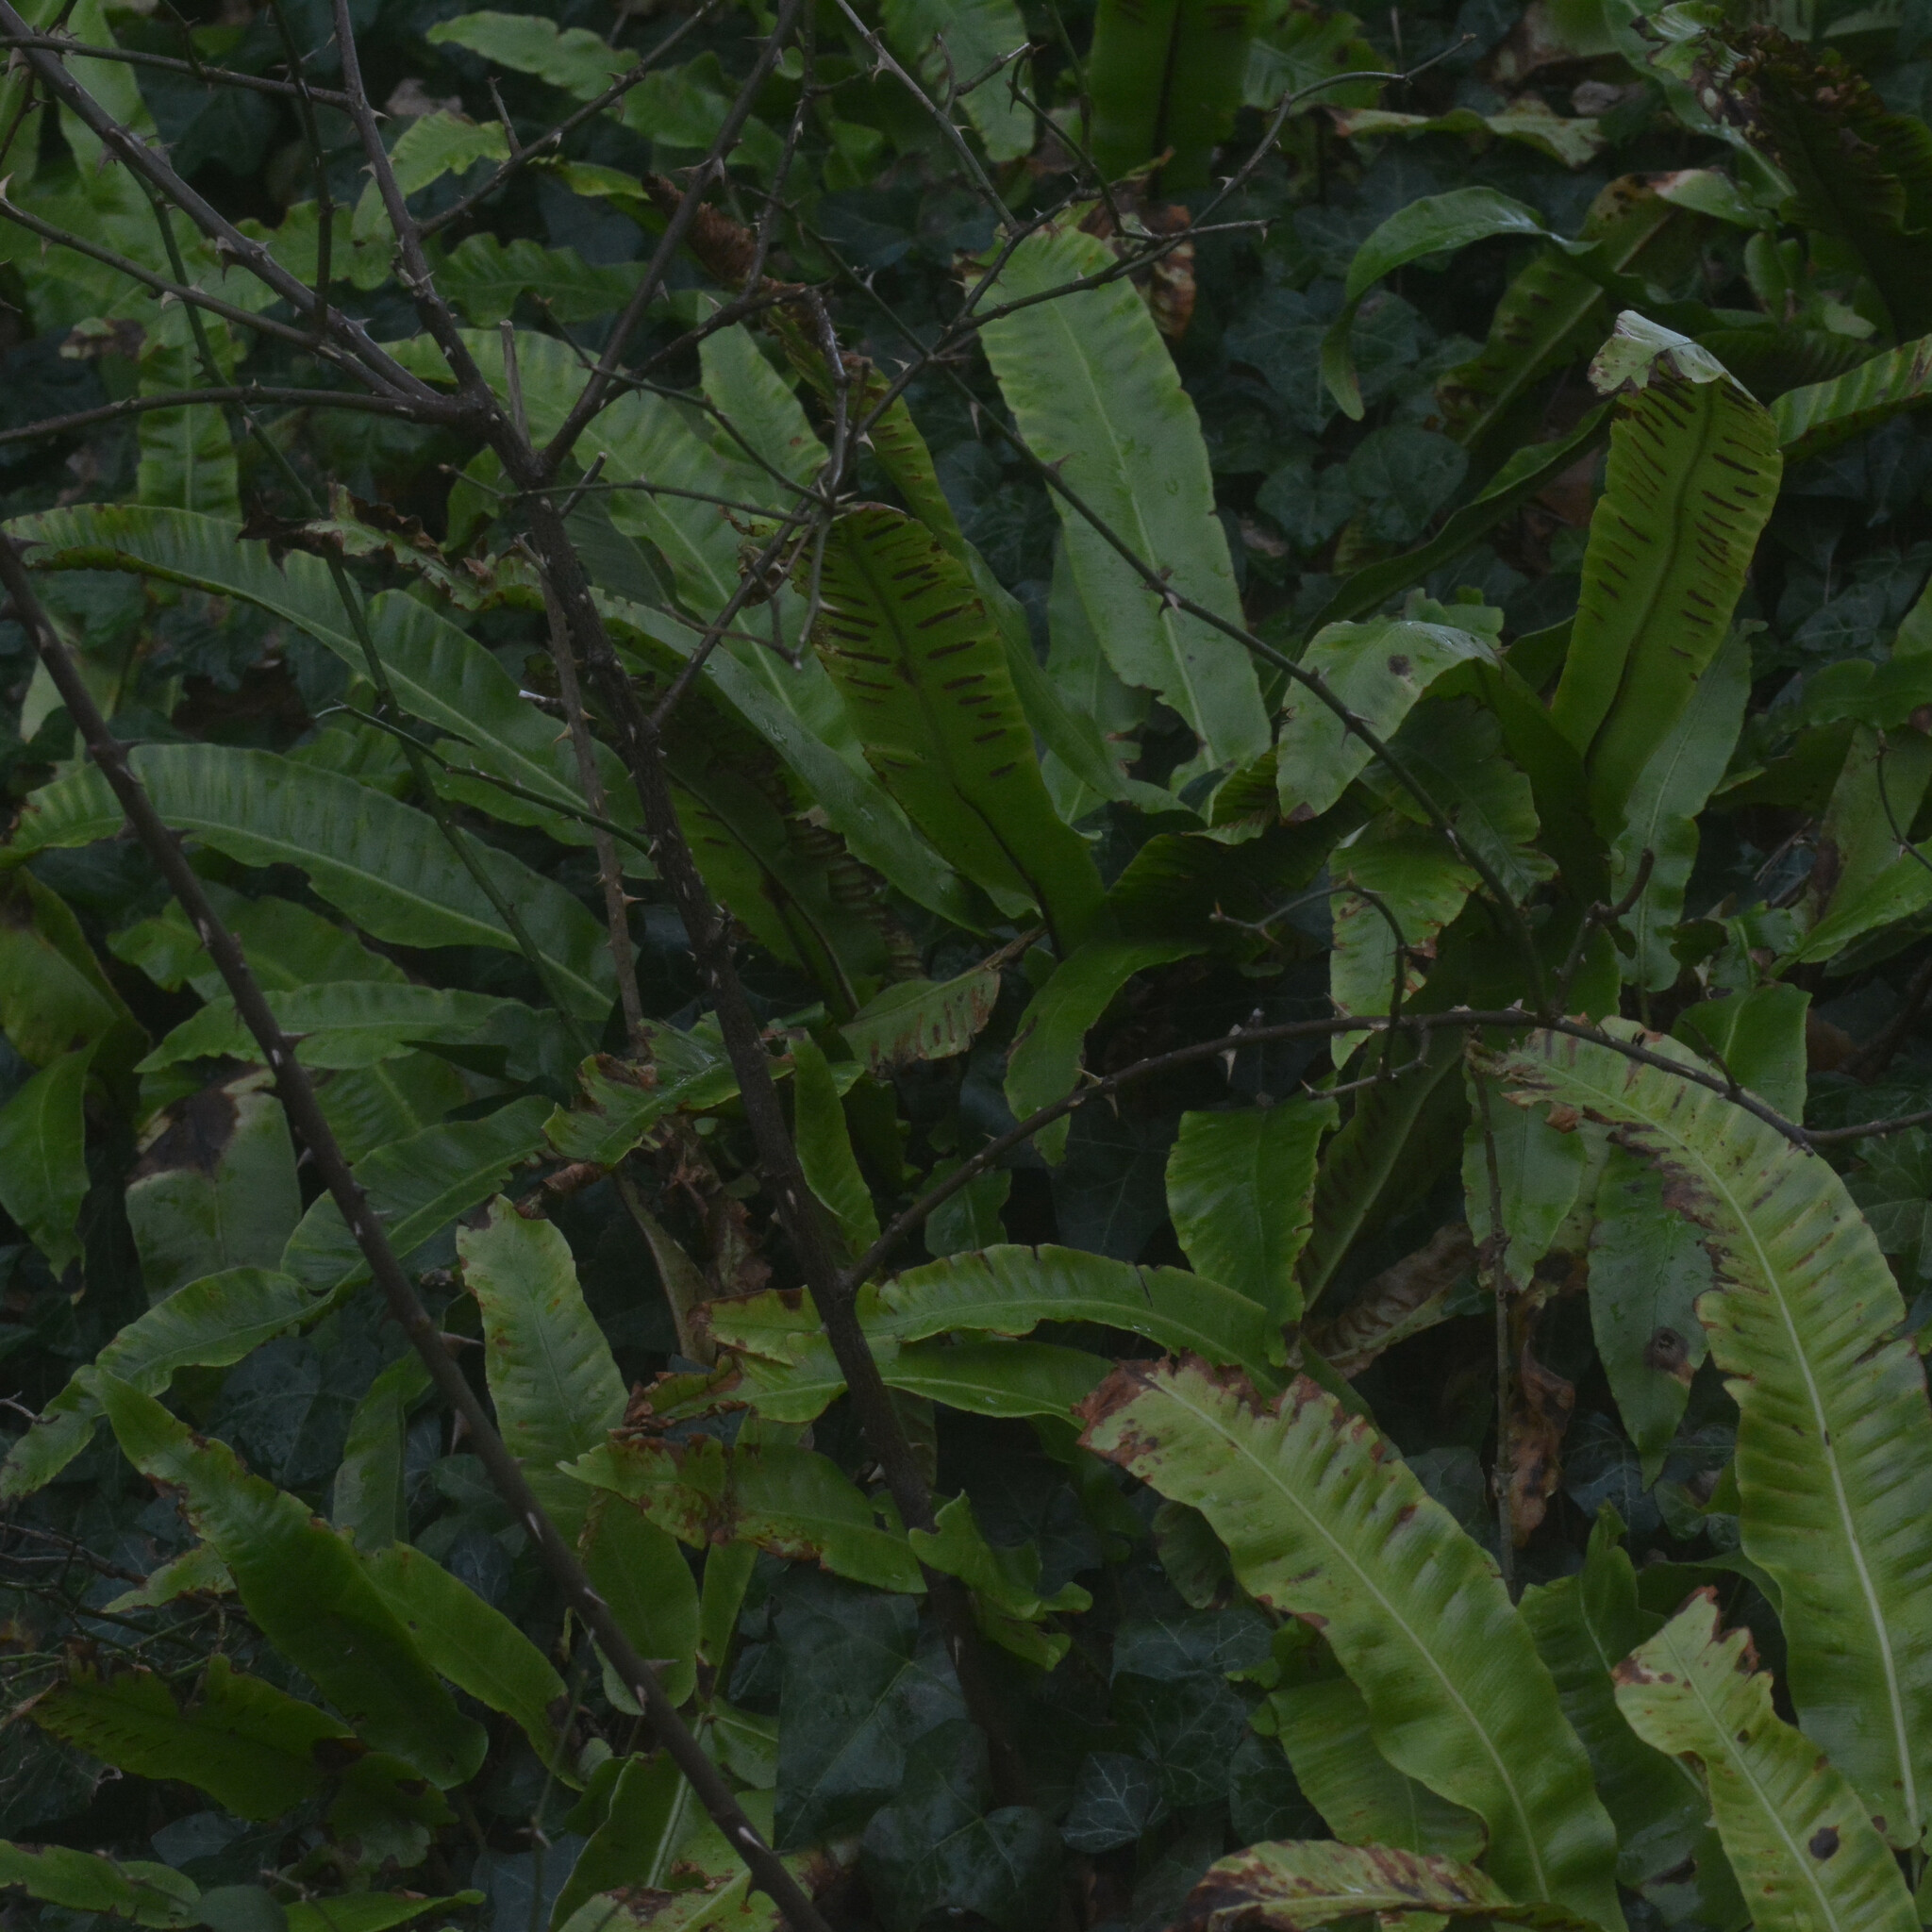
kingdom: Plantae
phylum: Tracheophyta
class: Polypodiopsida
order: Polypodiales
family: Aspleniaceae
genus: Asplenium
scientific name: Asplenium scolopendrium
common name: Hart's-tongue fern
